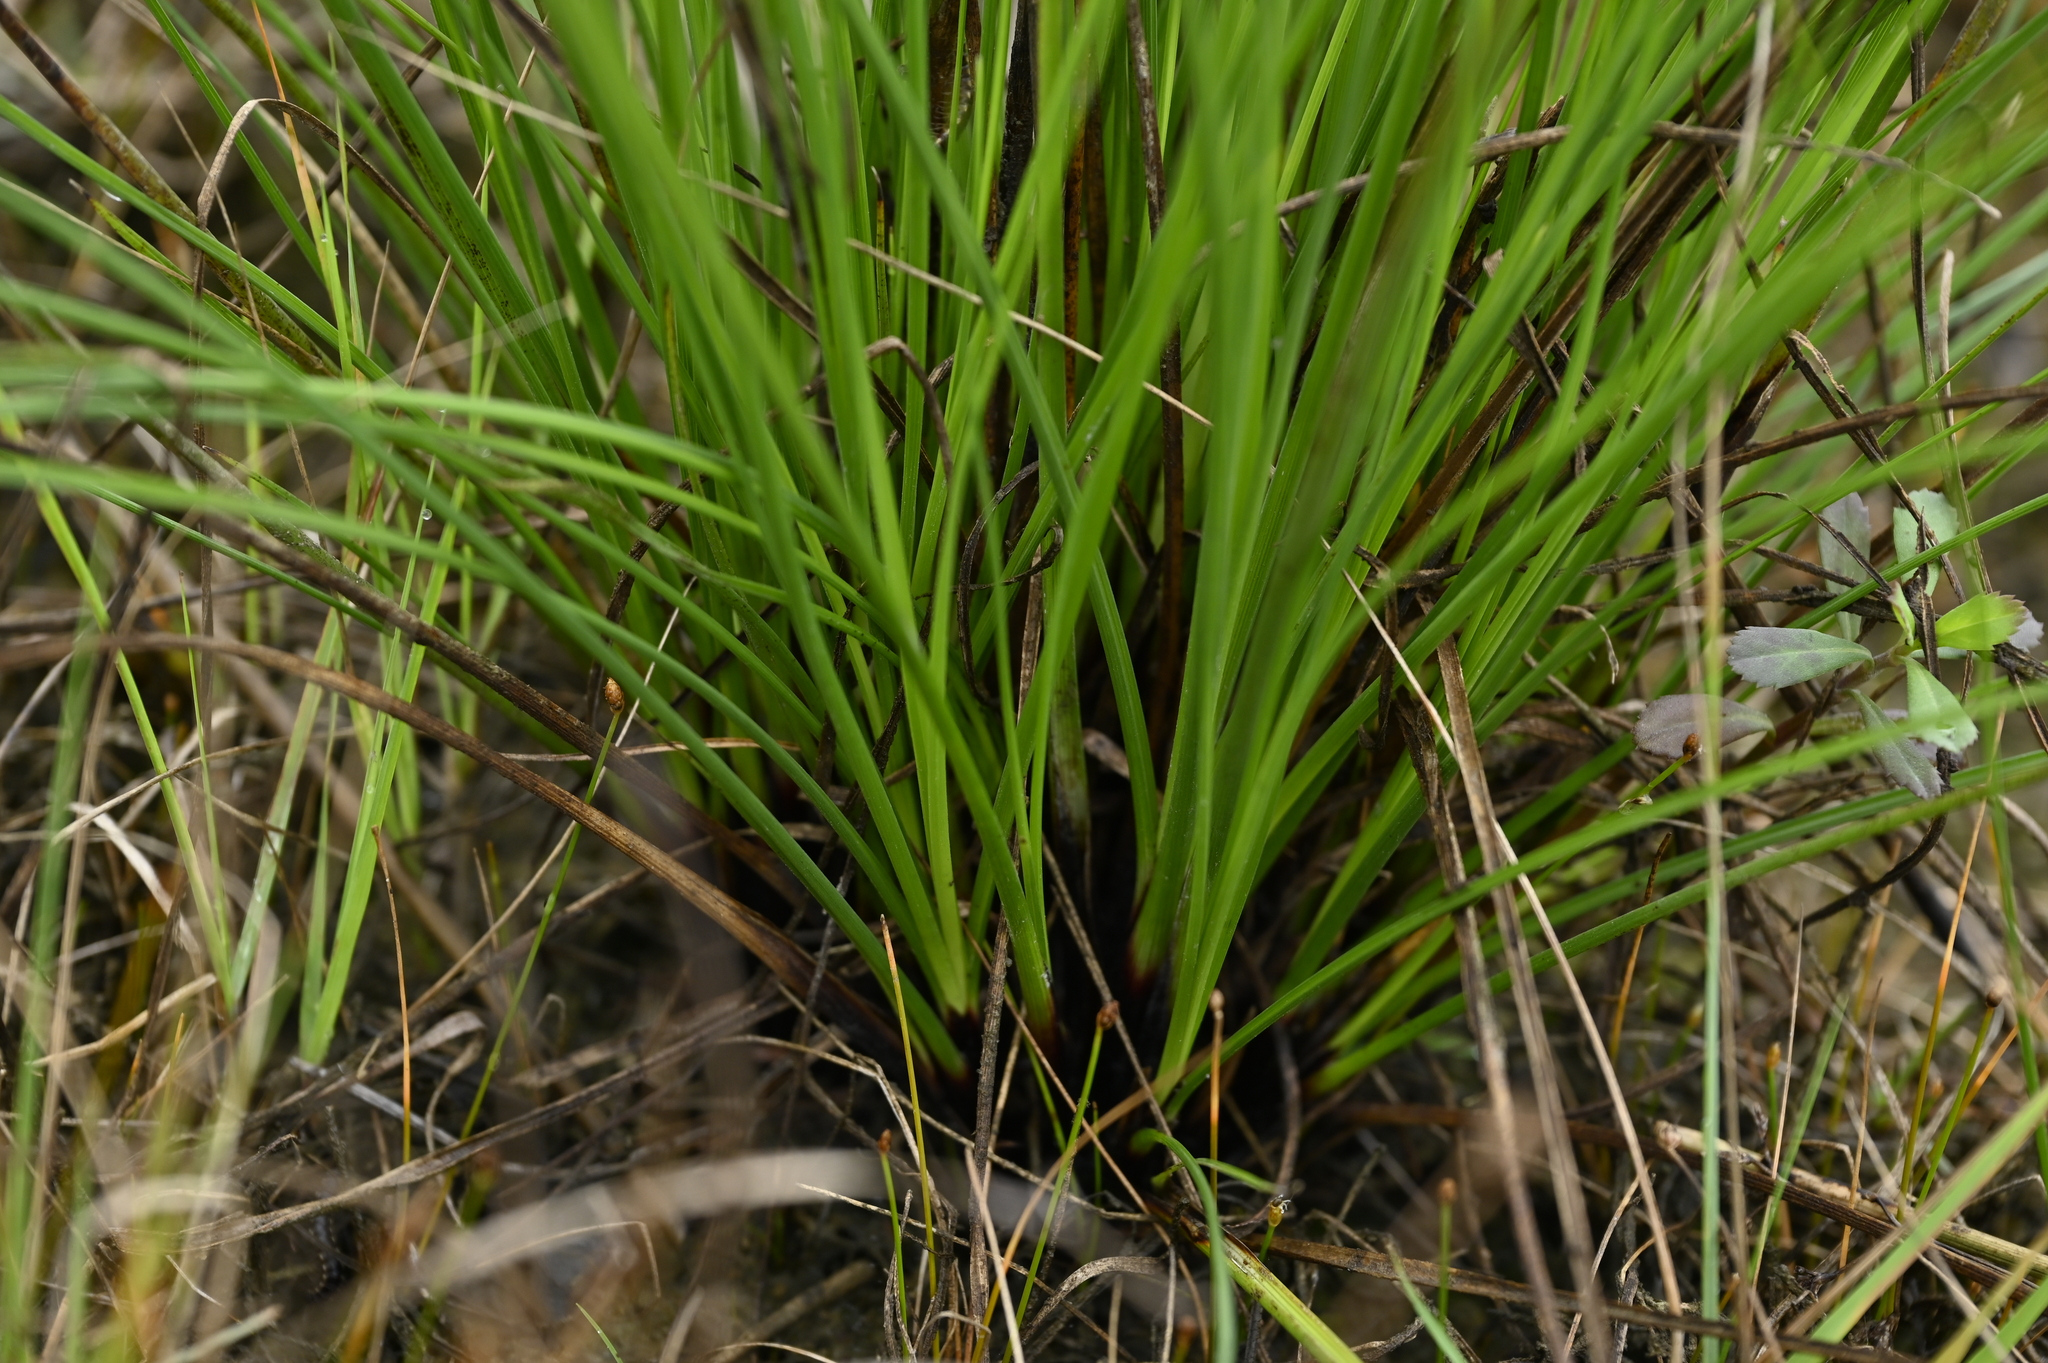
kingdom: Plantae
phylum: Tracheophyta
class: Liliopsida
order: Poales
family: Cyperaceae
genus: Schoenus
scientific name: Schoenus falcatus
